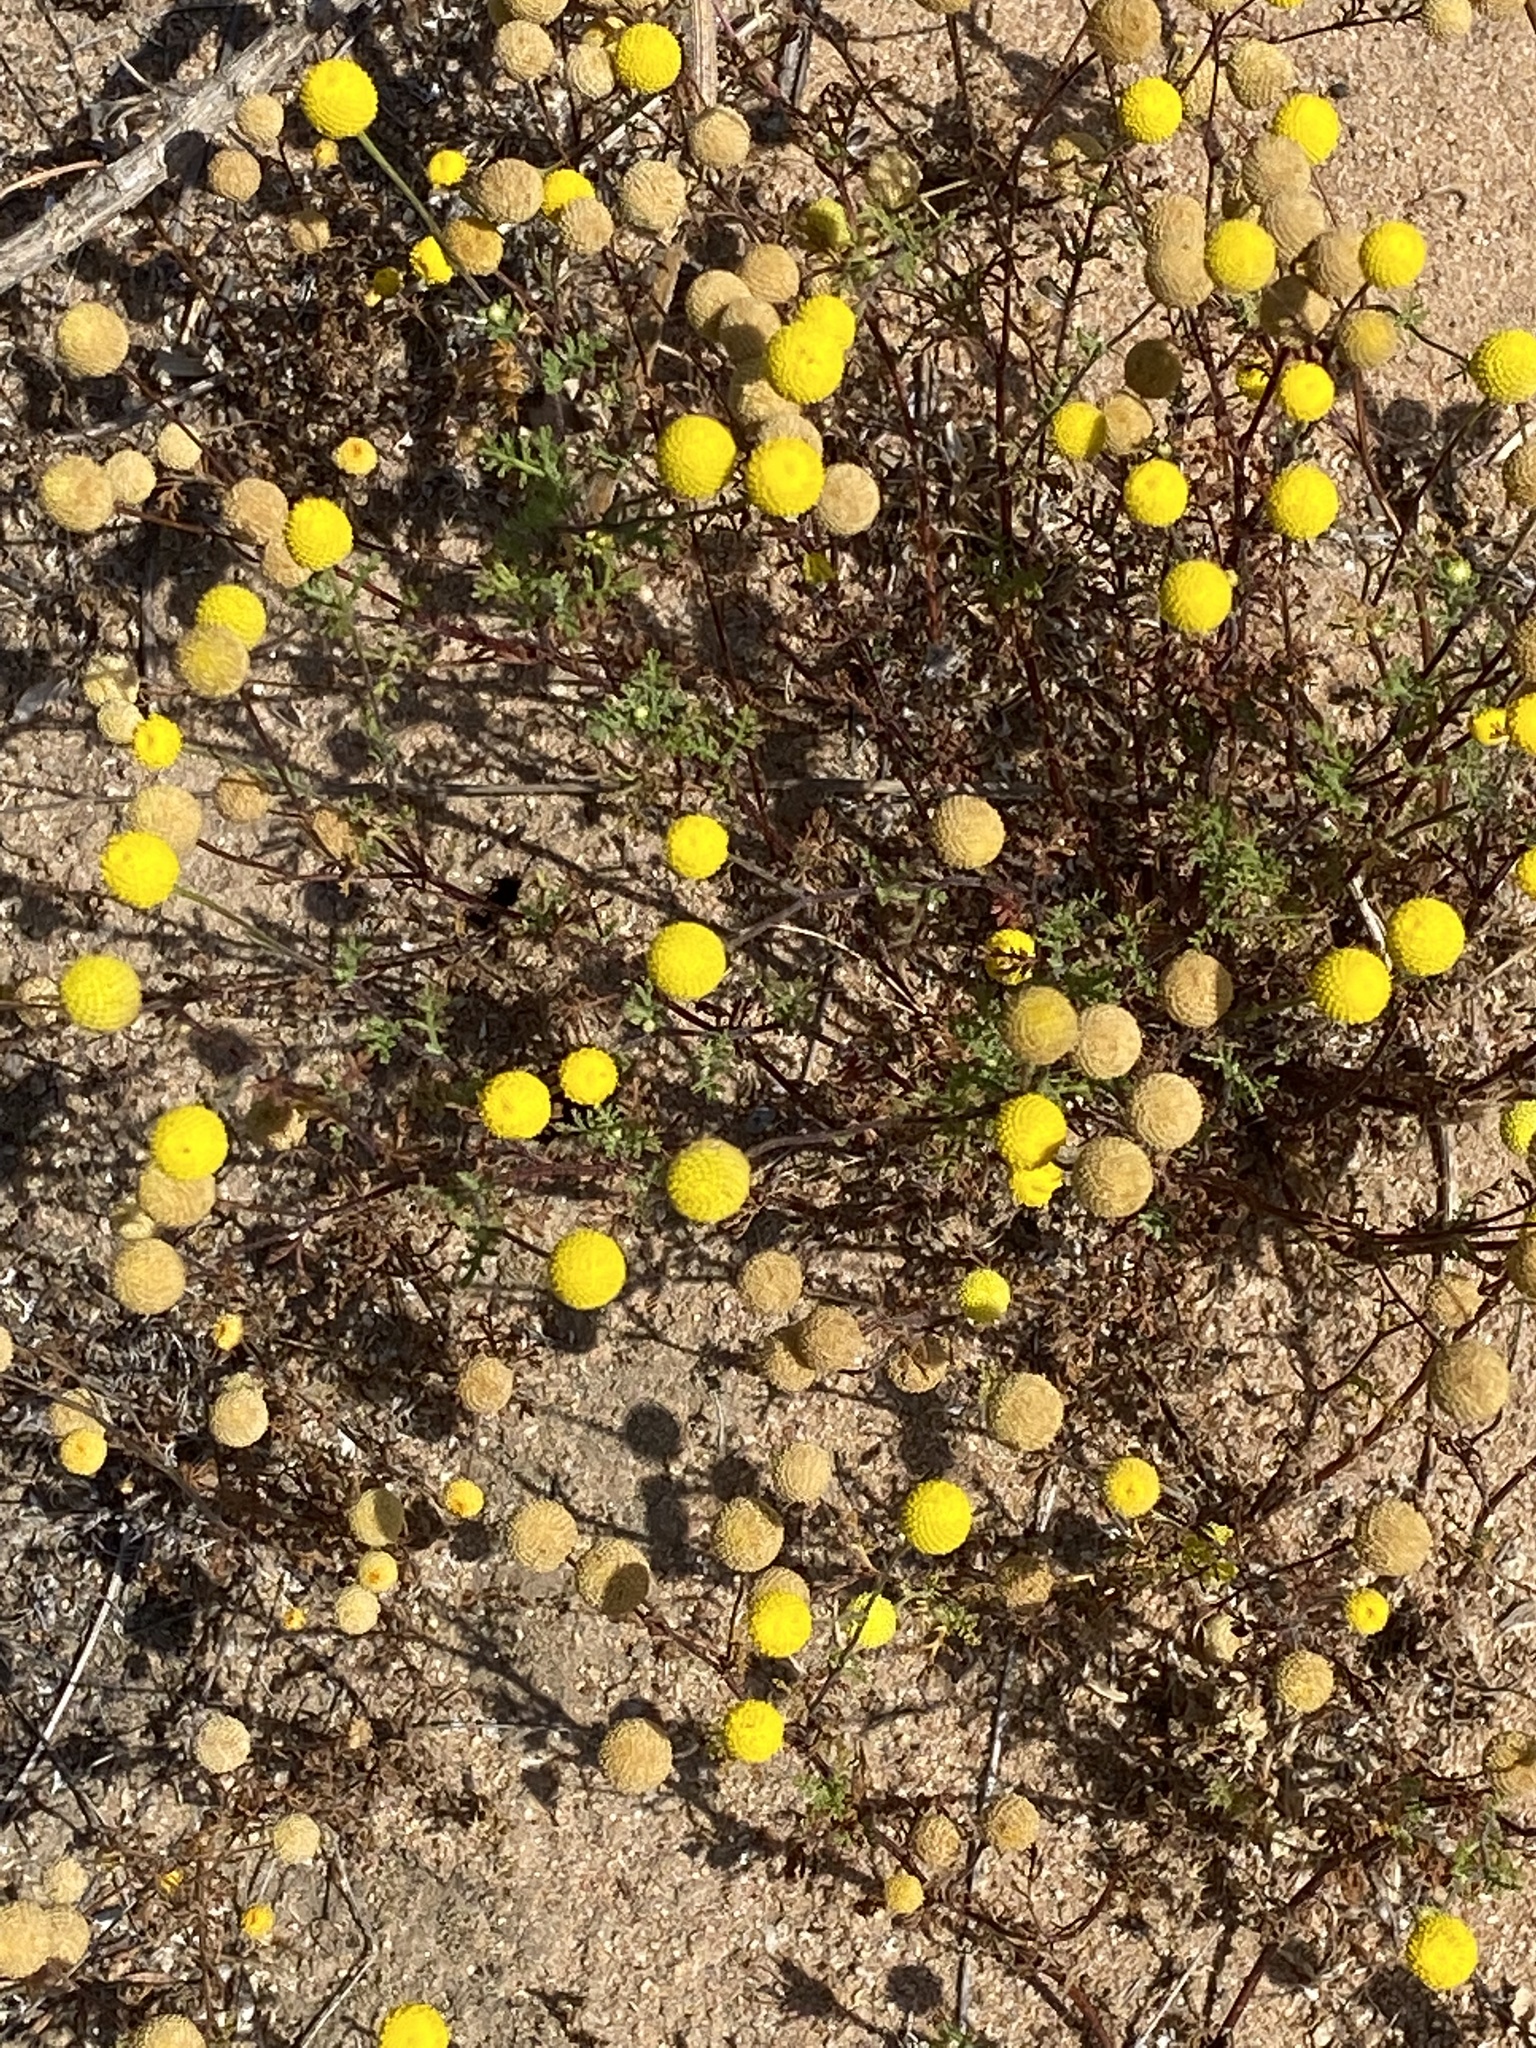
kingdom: Plantae
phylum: Tracheophyta
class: Magnoliopsida
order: Asterales
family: Asteraceae
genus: Oncosiphon
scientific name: Oncosiphon pilulifer
